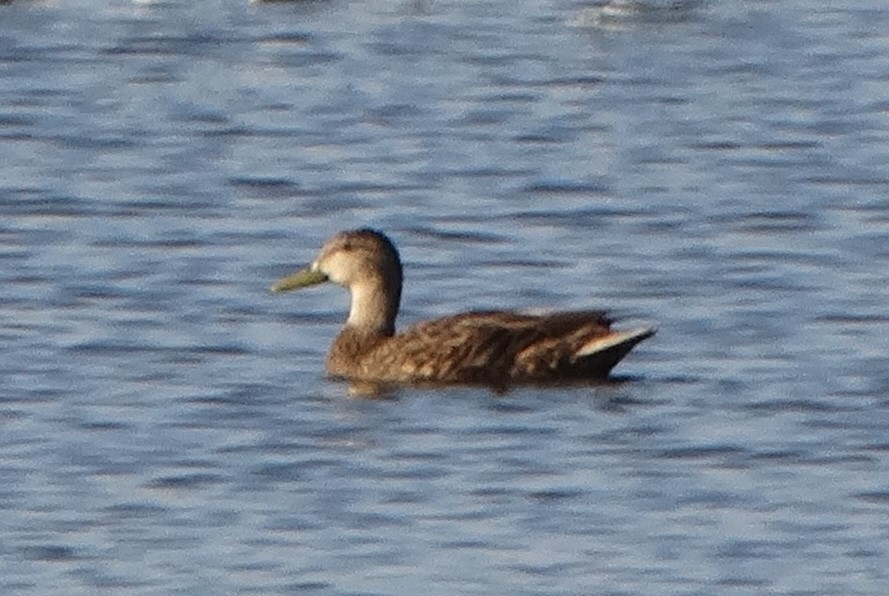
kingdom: Animalia
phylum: Chordata
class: Aves
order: Anseriformes
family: Anatidae
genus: Anas
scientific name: Anas diazi
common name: Mexican duck
